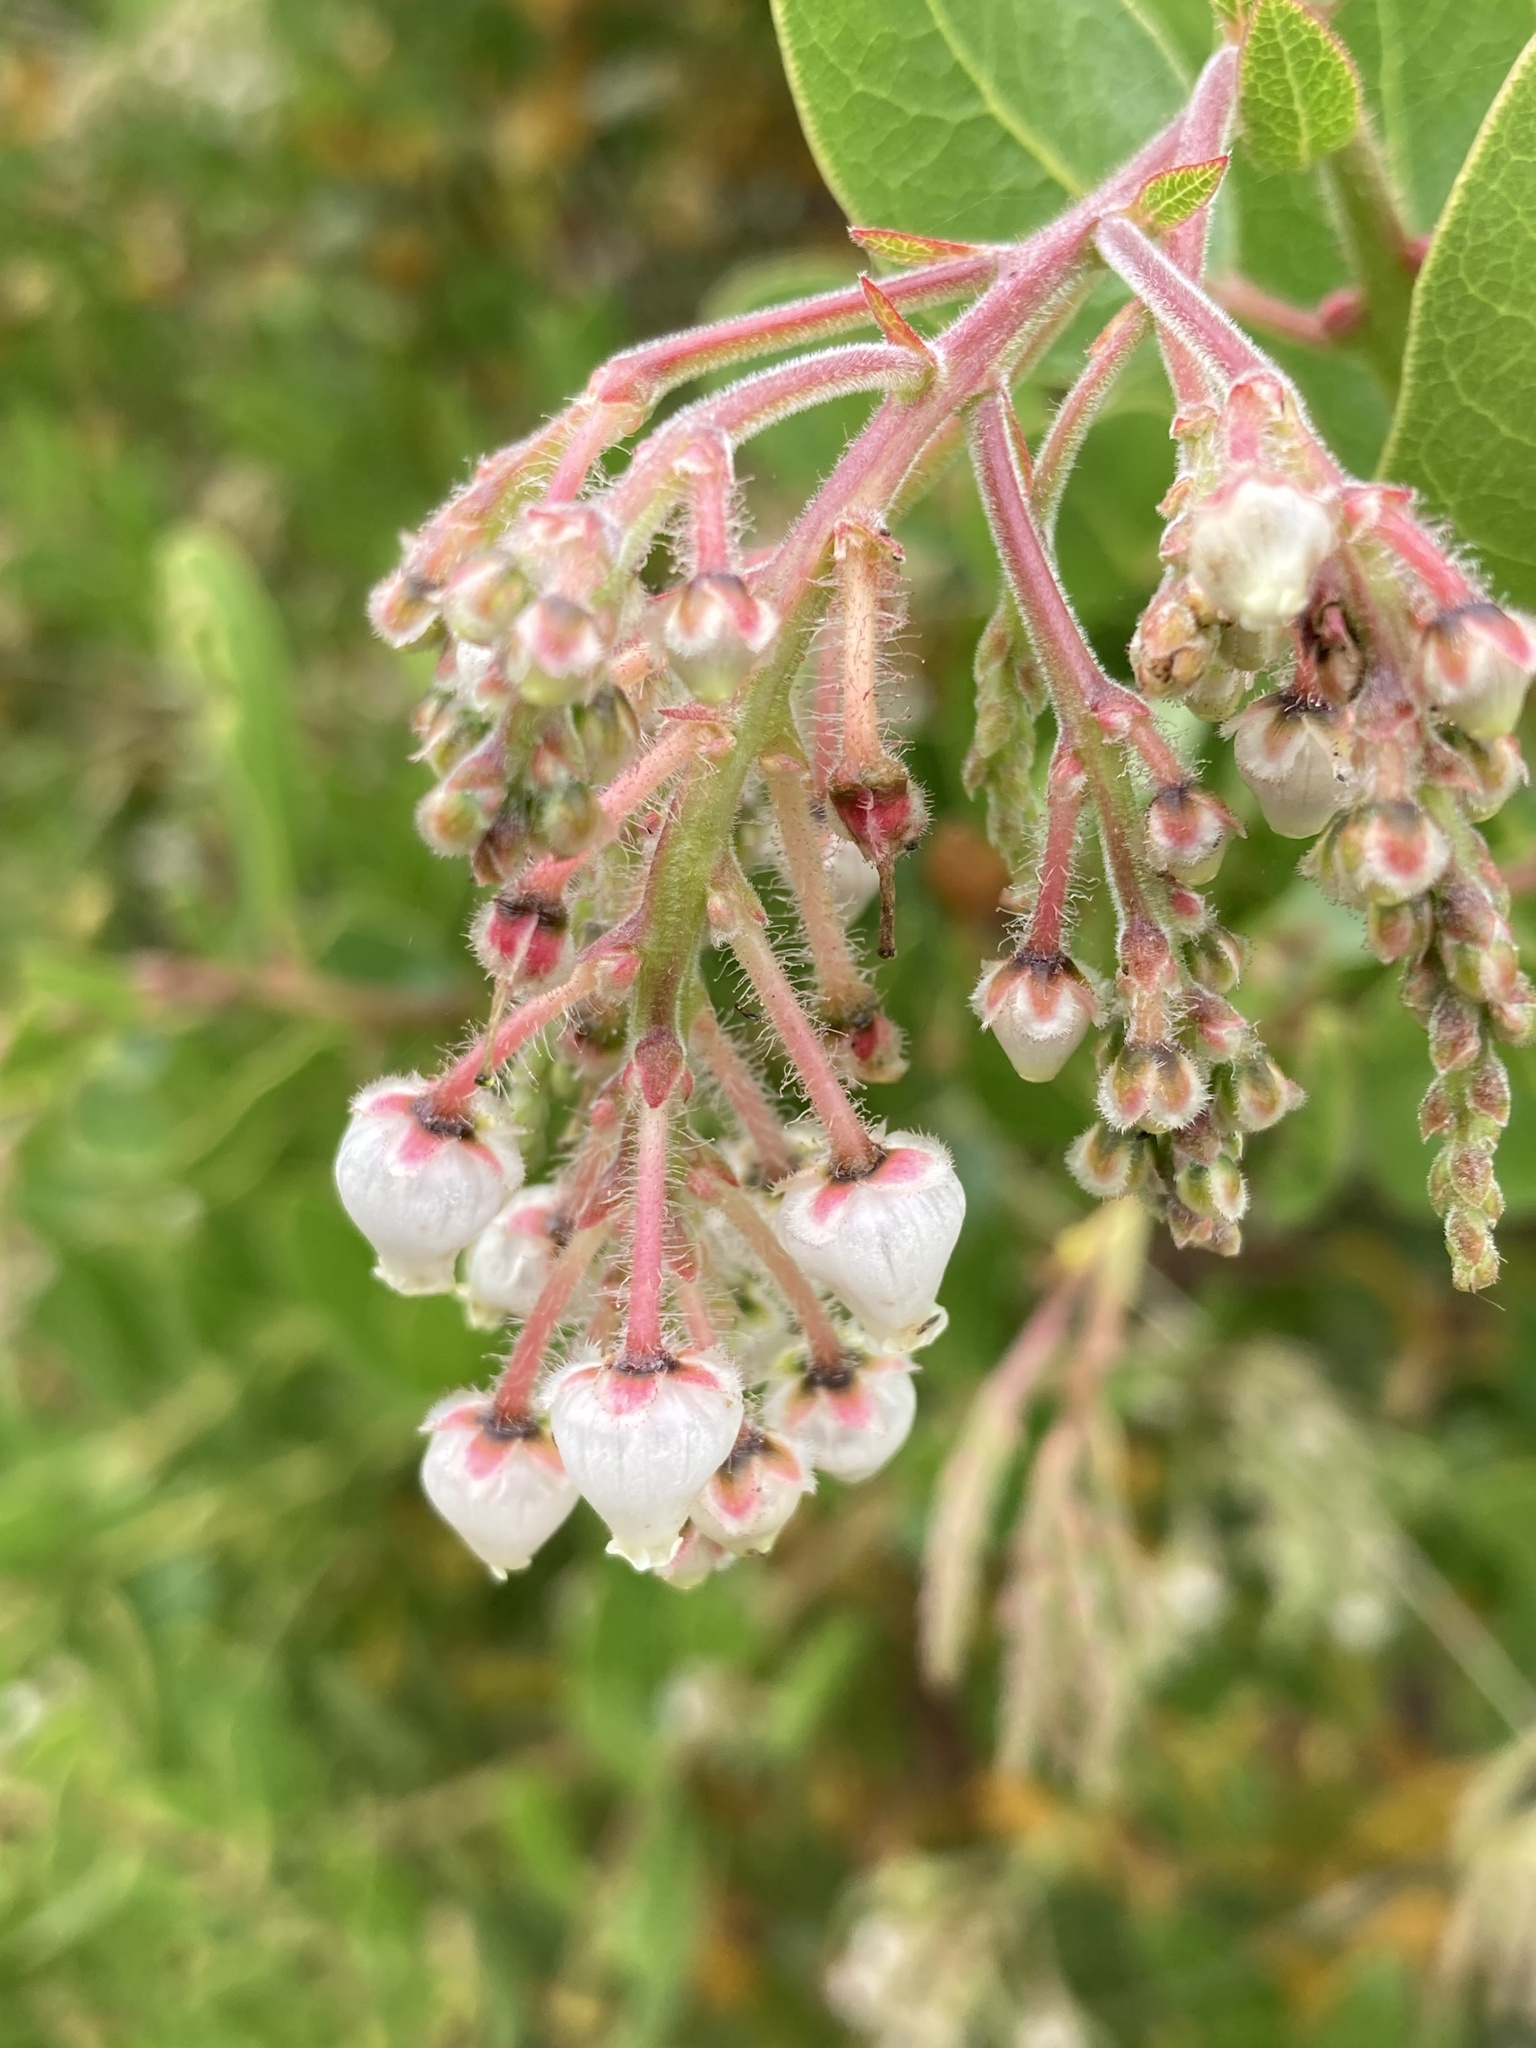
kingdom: Plantae
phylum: Tracheophyta
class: Magnoliopsida
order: Ericales
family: Ericaceae
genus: Arctostaphylos
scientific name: Arctostaphylos insularis
